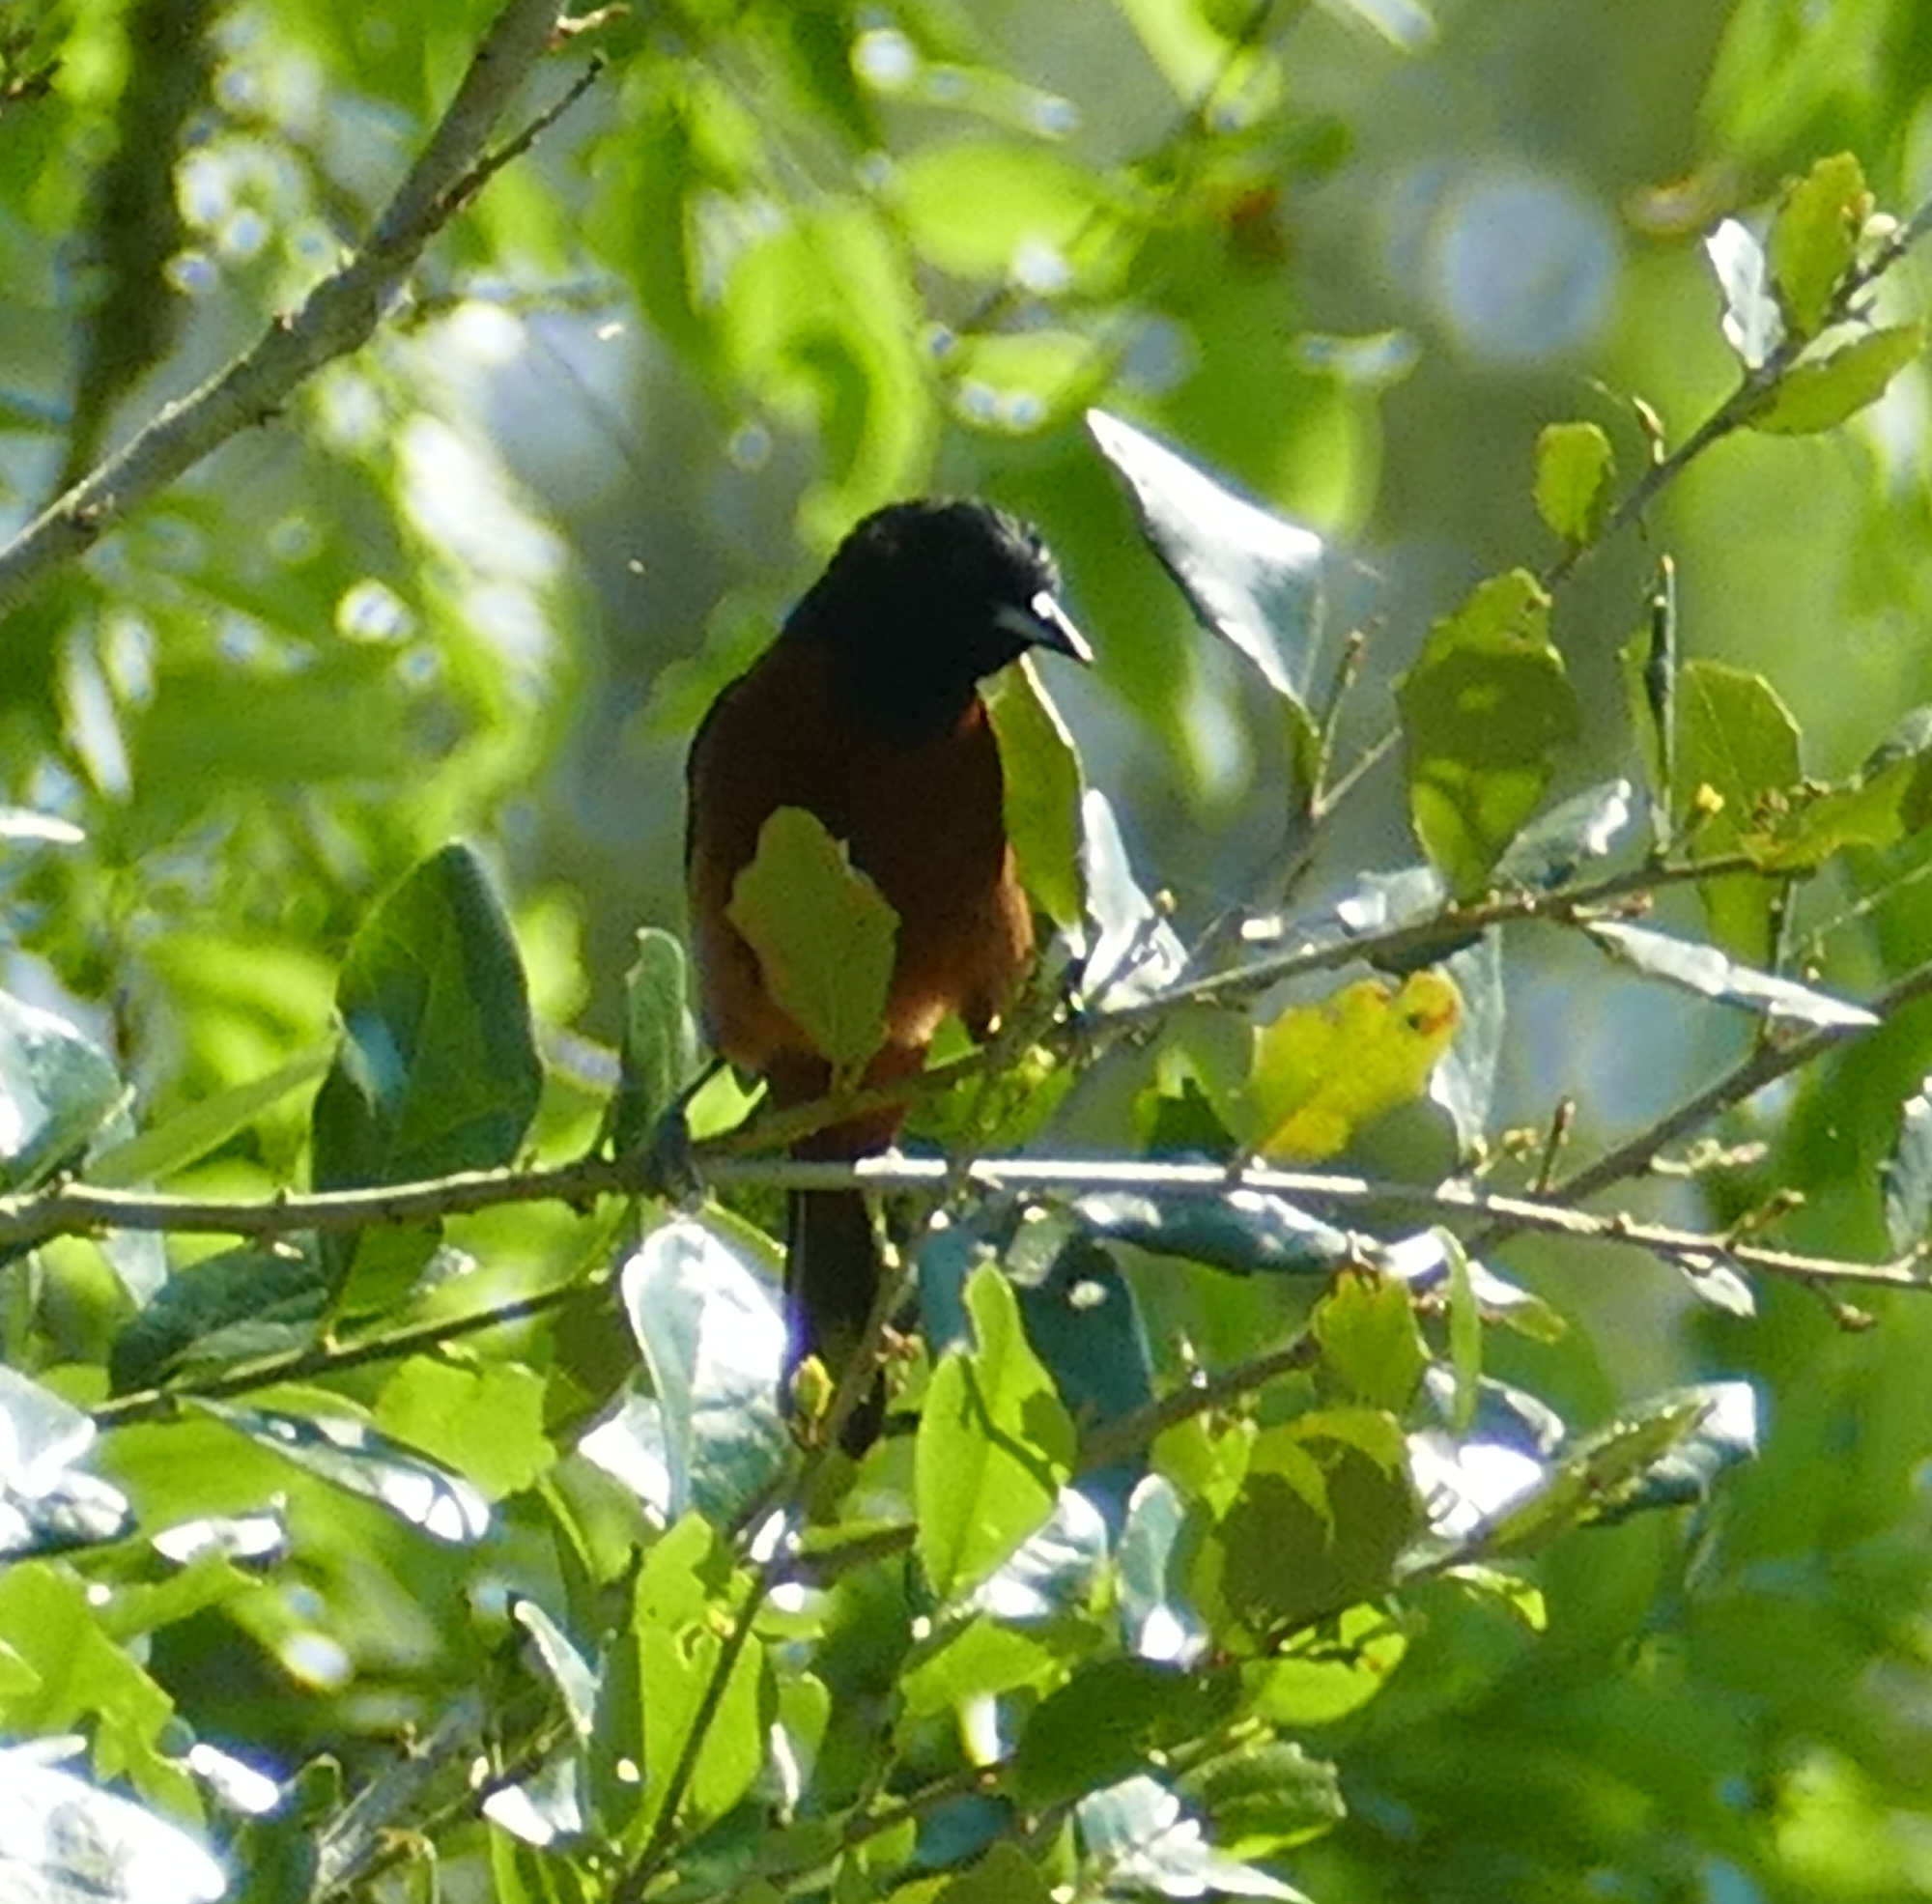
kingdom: Animalia
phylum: Chordata
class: Aves
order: Passeriformes
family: Icteridae
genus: Icterus
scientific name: Icterus spurius
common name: Orchard oriole
